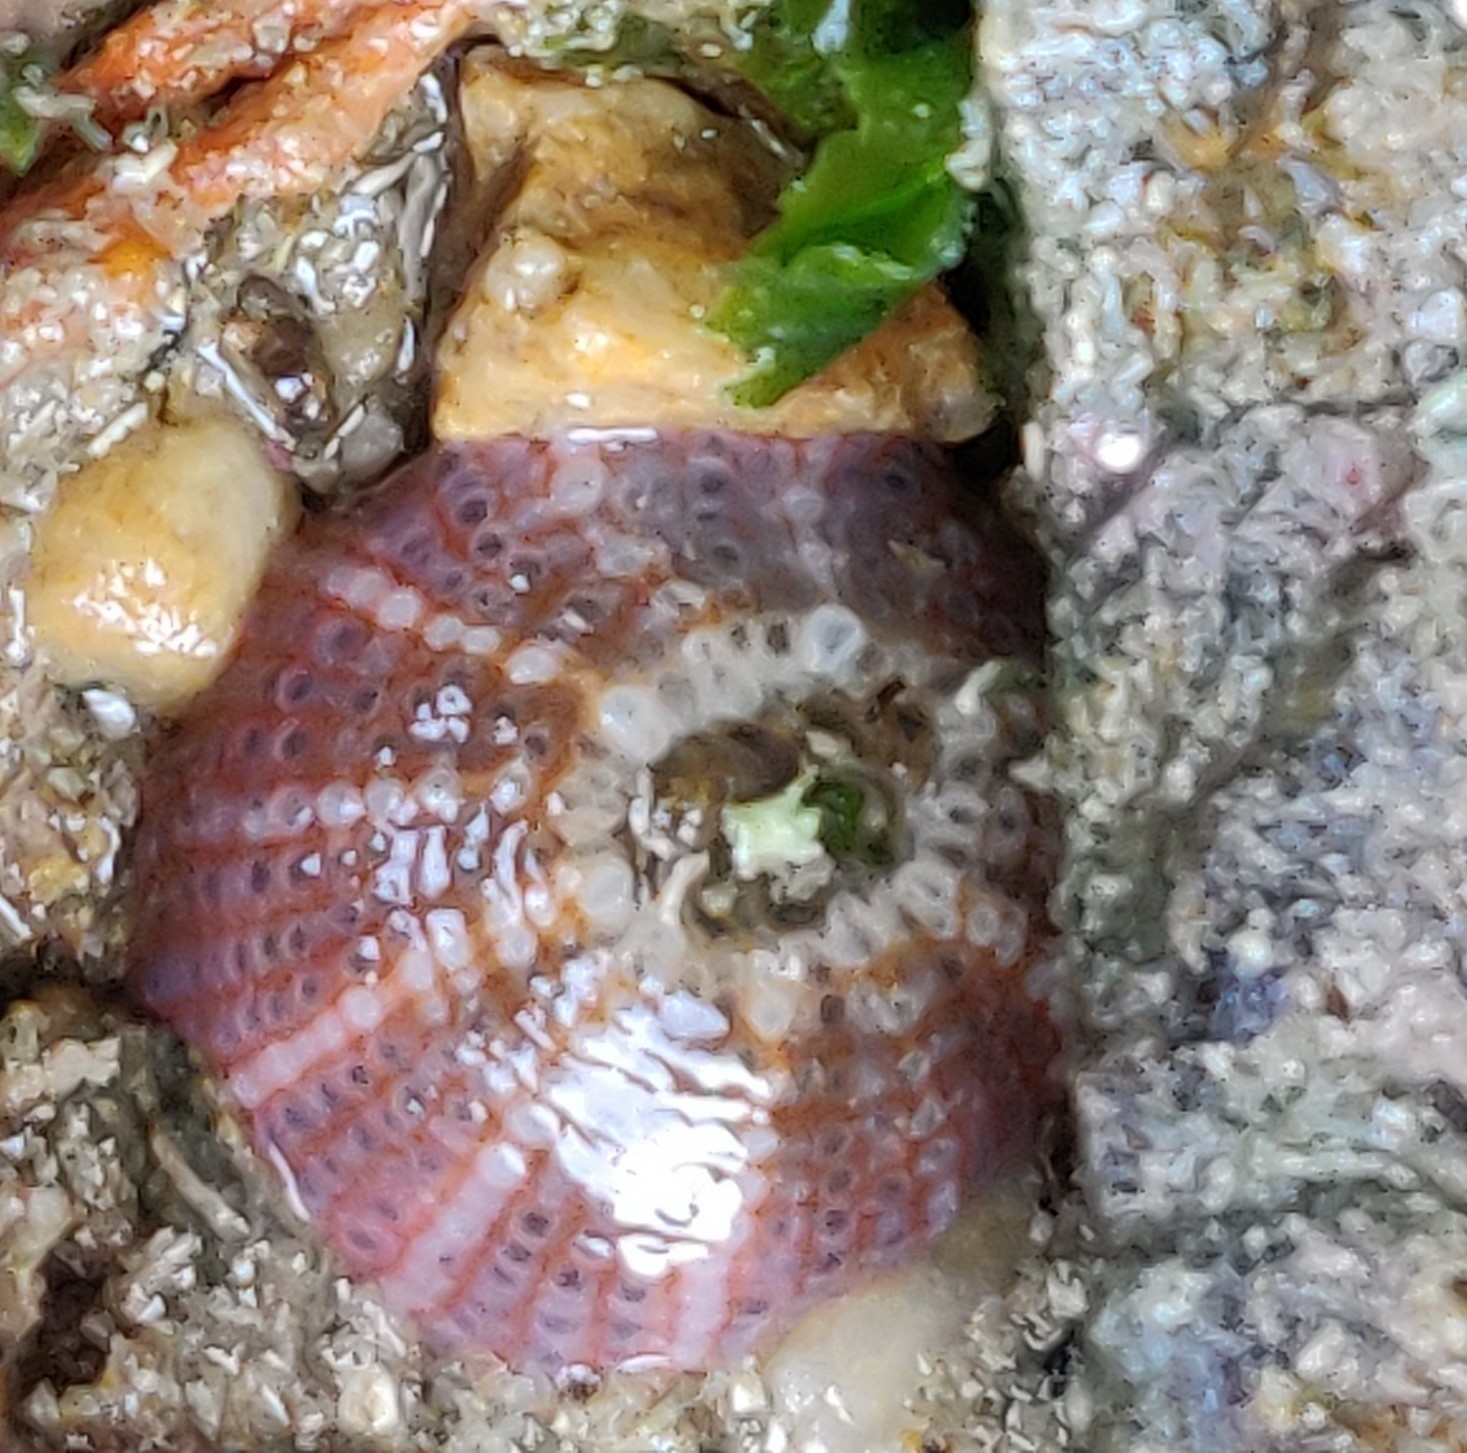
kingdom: Animalia
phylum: Cnidaria
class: Anthozoa
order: Actiniaria
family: Actiniidae
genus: Bunodactis
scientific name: Bunodactis verrucosa
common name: Gem anemone
